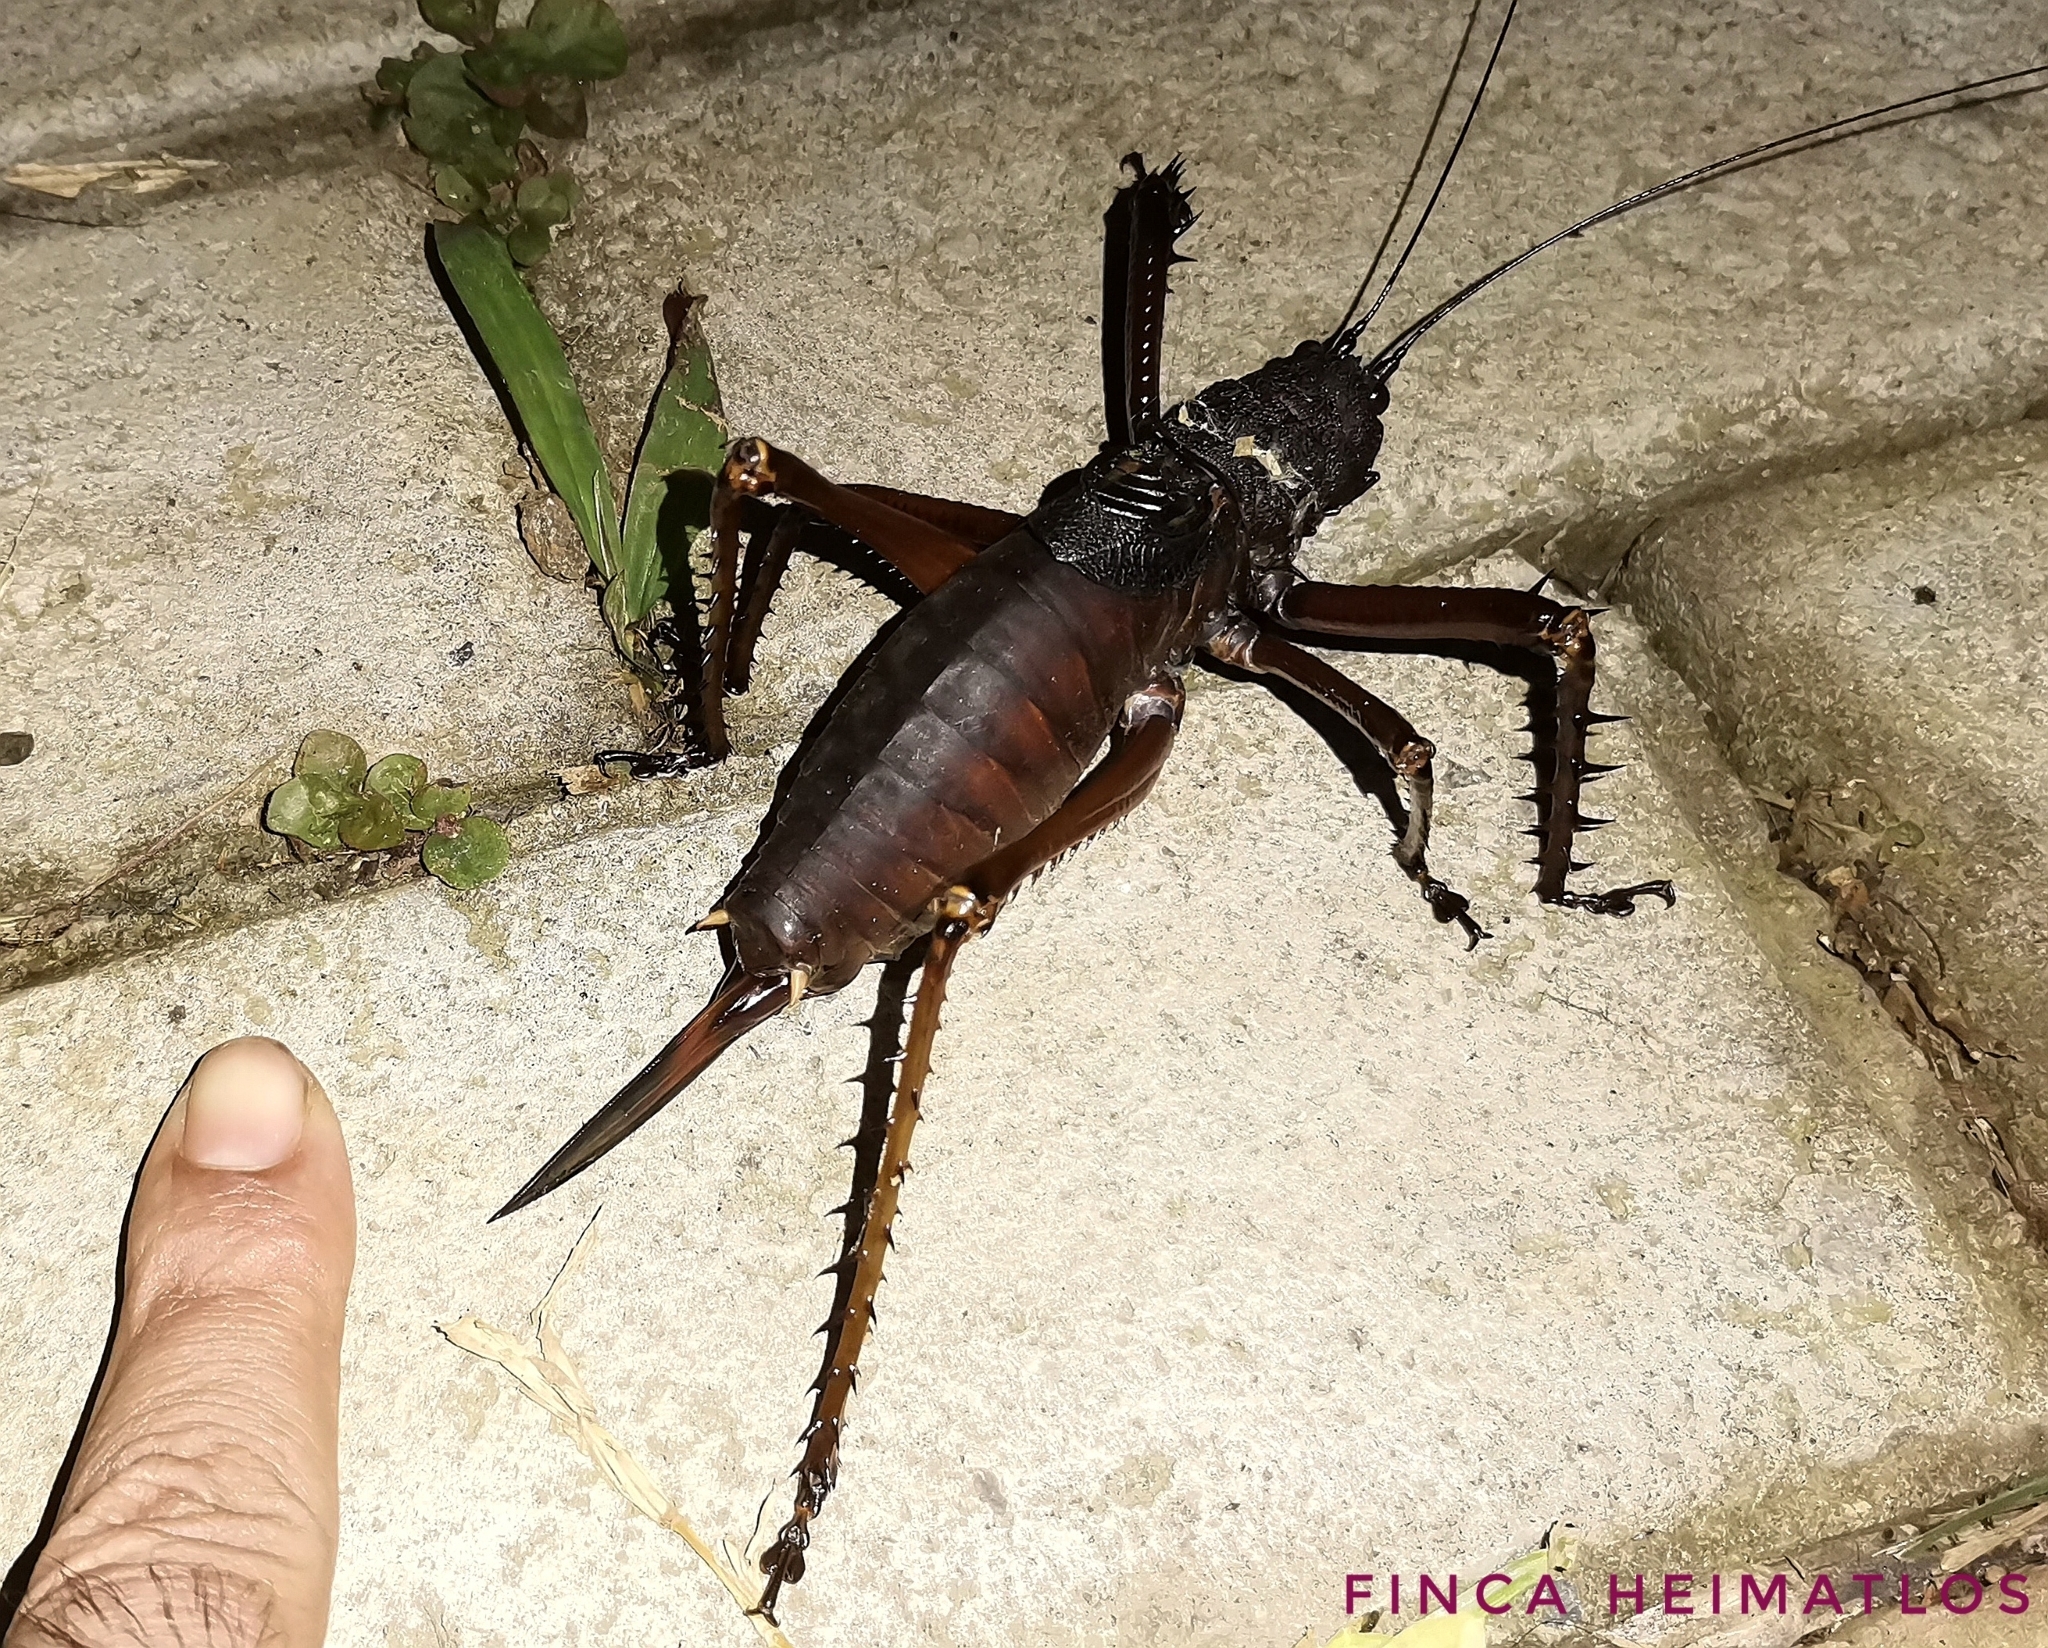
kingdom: Animalia
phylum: Arthropoda
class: Insecta
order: Orthoptera
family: Tettigoniidae
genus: Panoploscelis
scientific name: Panoploscelis specularis
